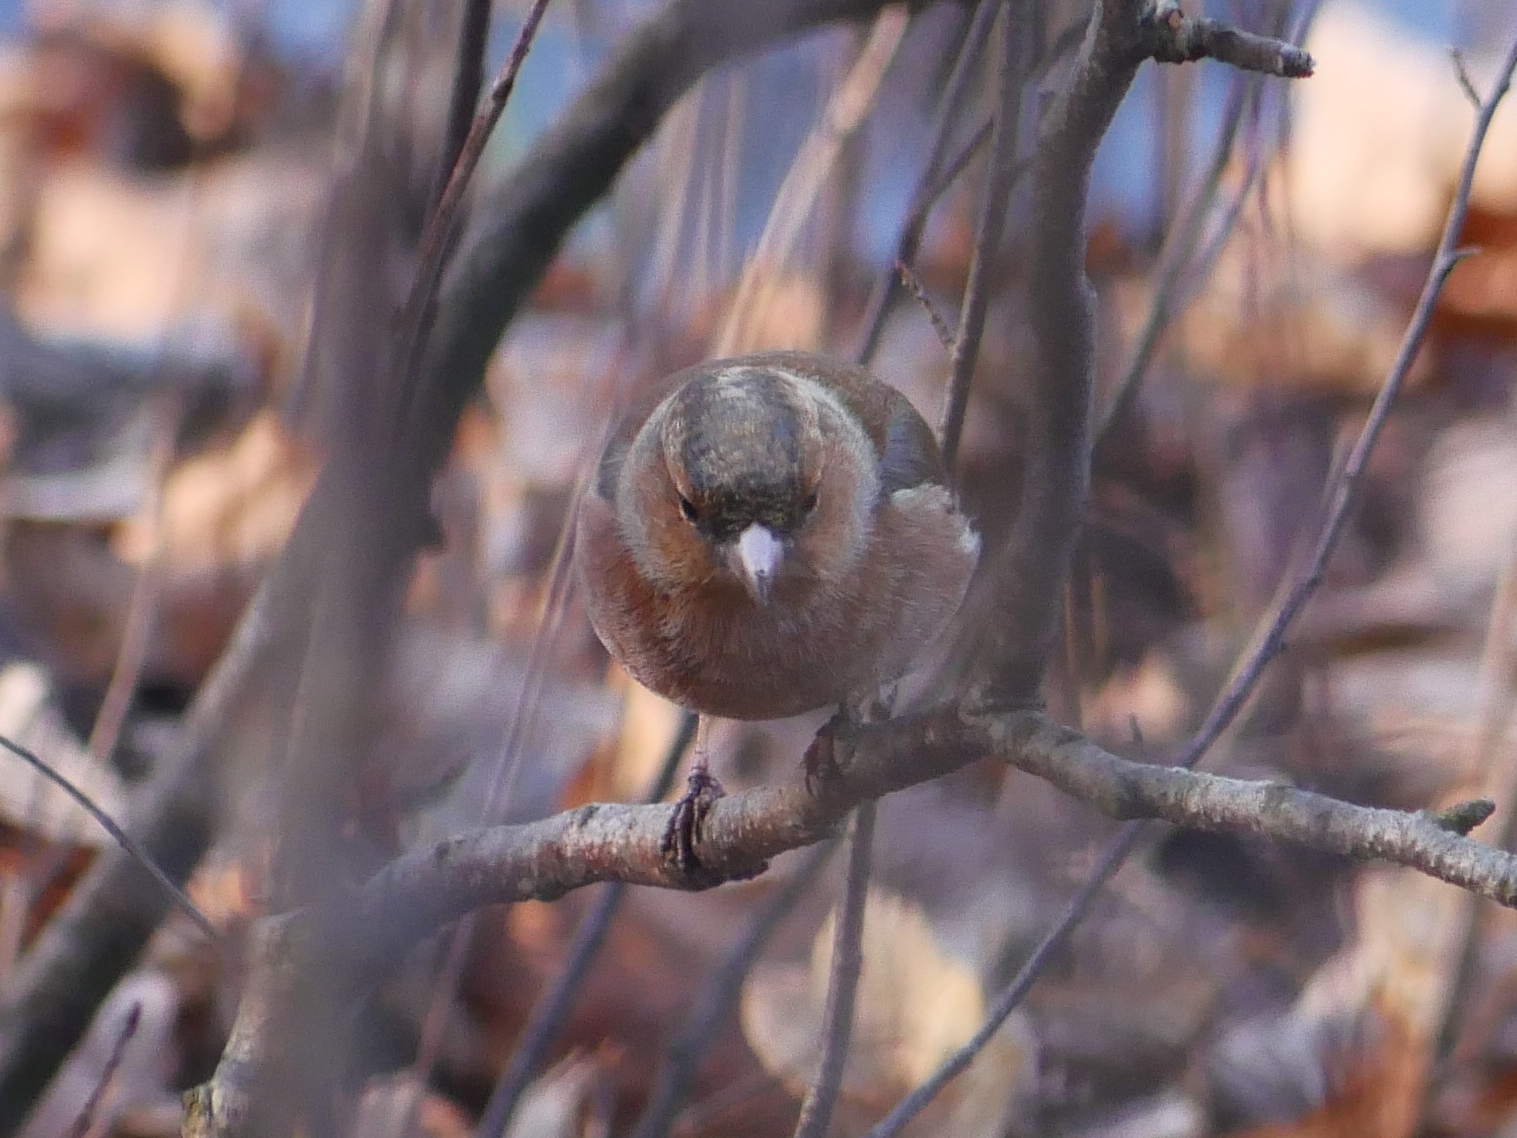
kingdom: Animalia
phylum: Chordata
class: Aves
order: Passeriformes
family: Fringillidae
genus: Fringilla
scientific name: Fringilla coelebs
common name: Common chaffinch
